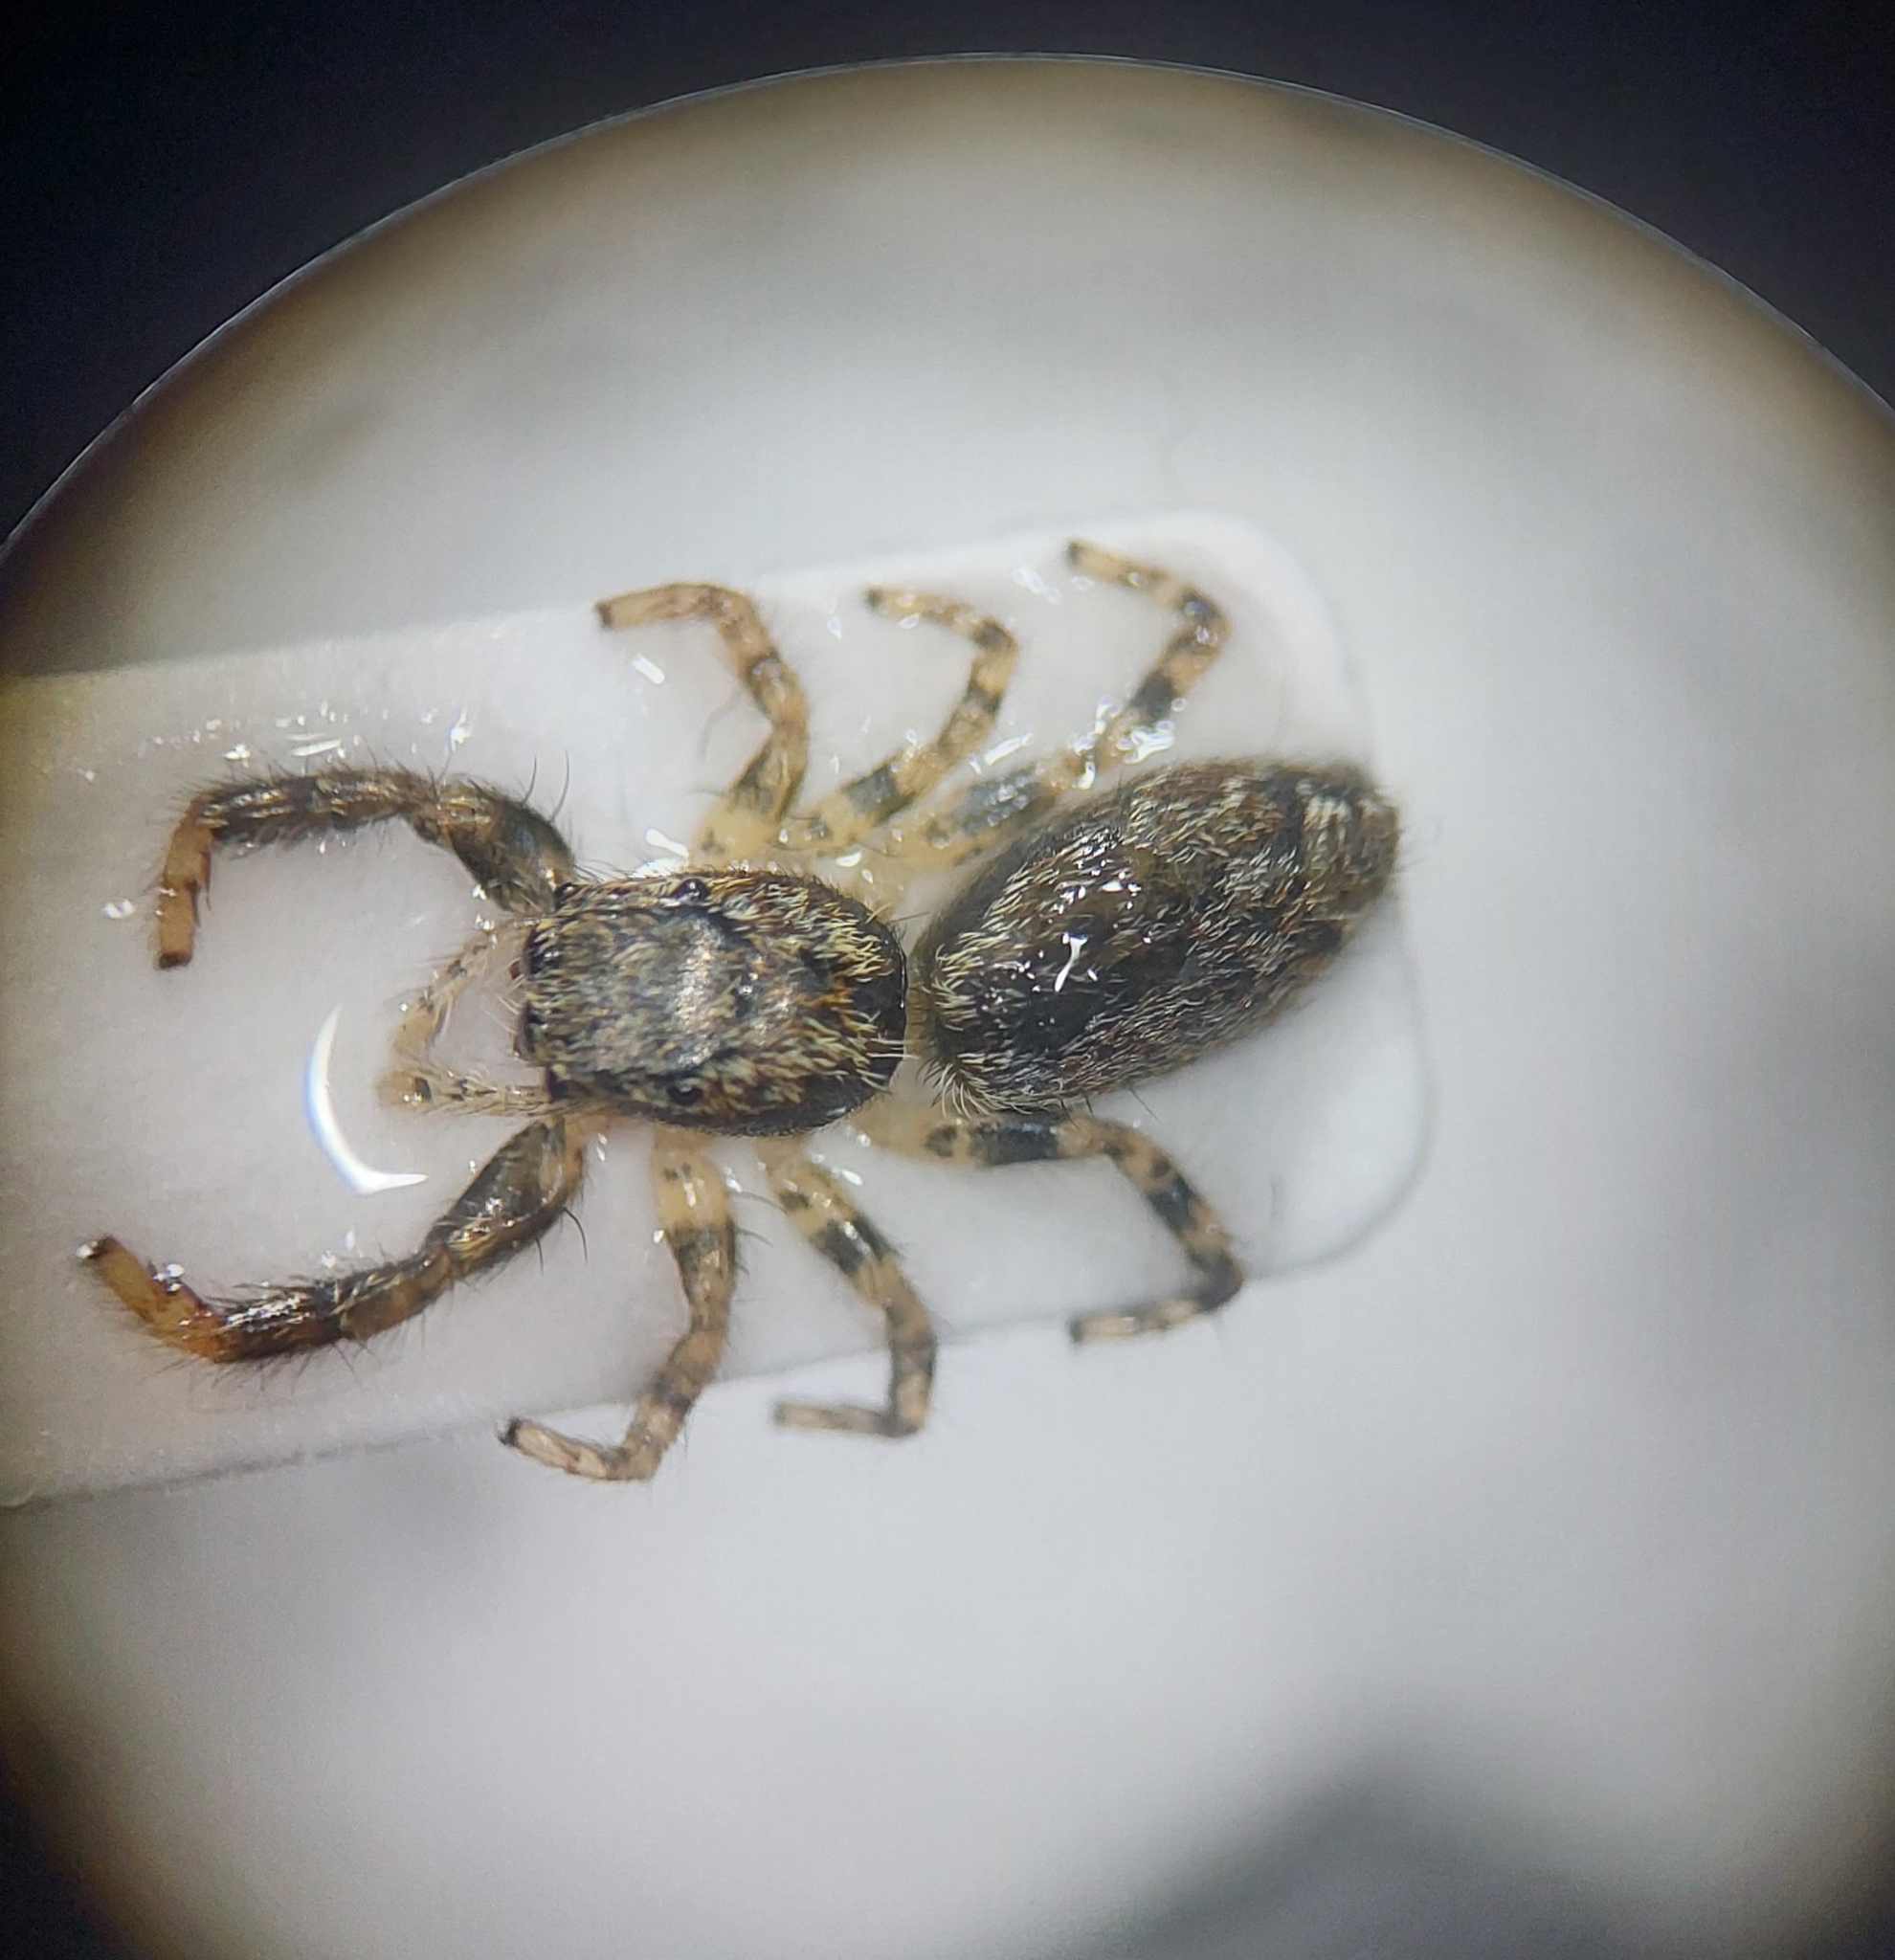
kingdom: Animalia
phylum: Arthropoda
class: Arachnida
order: Araneae
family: Salticidae
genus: Marpissa
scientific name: Marpissa muscosa
